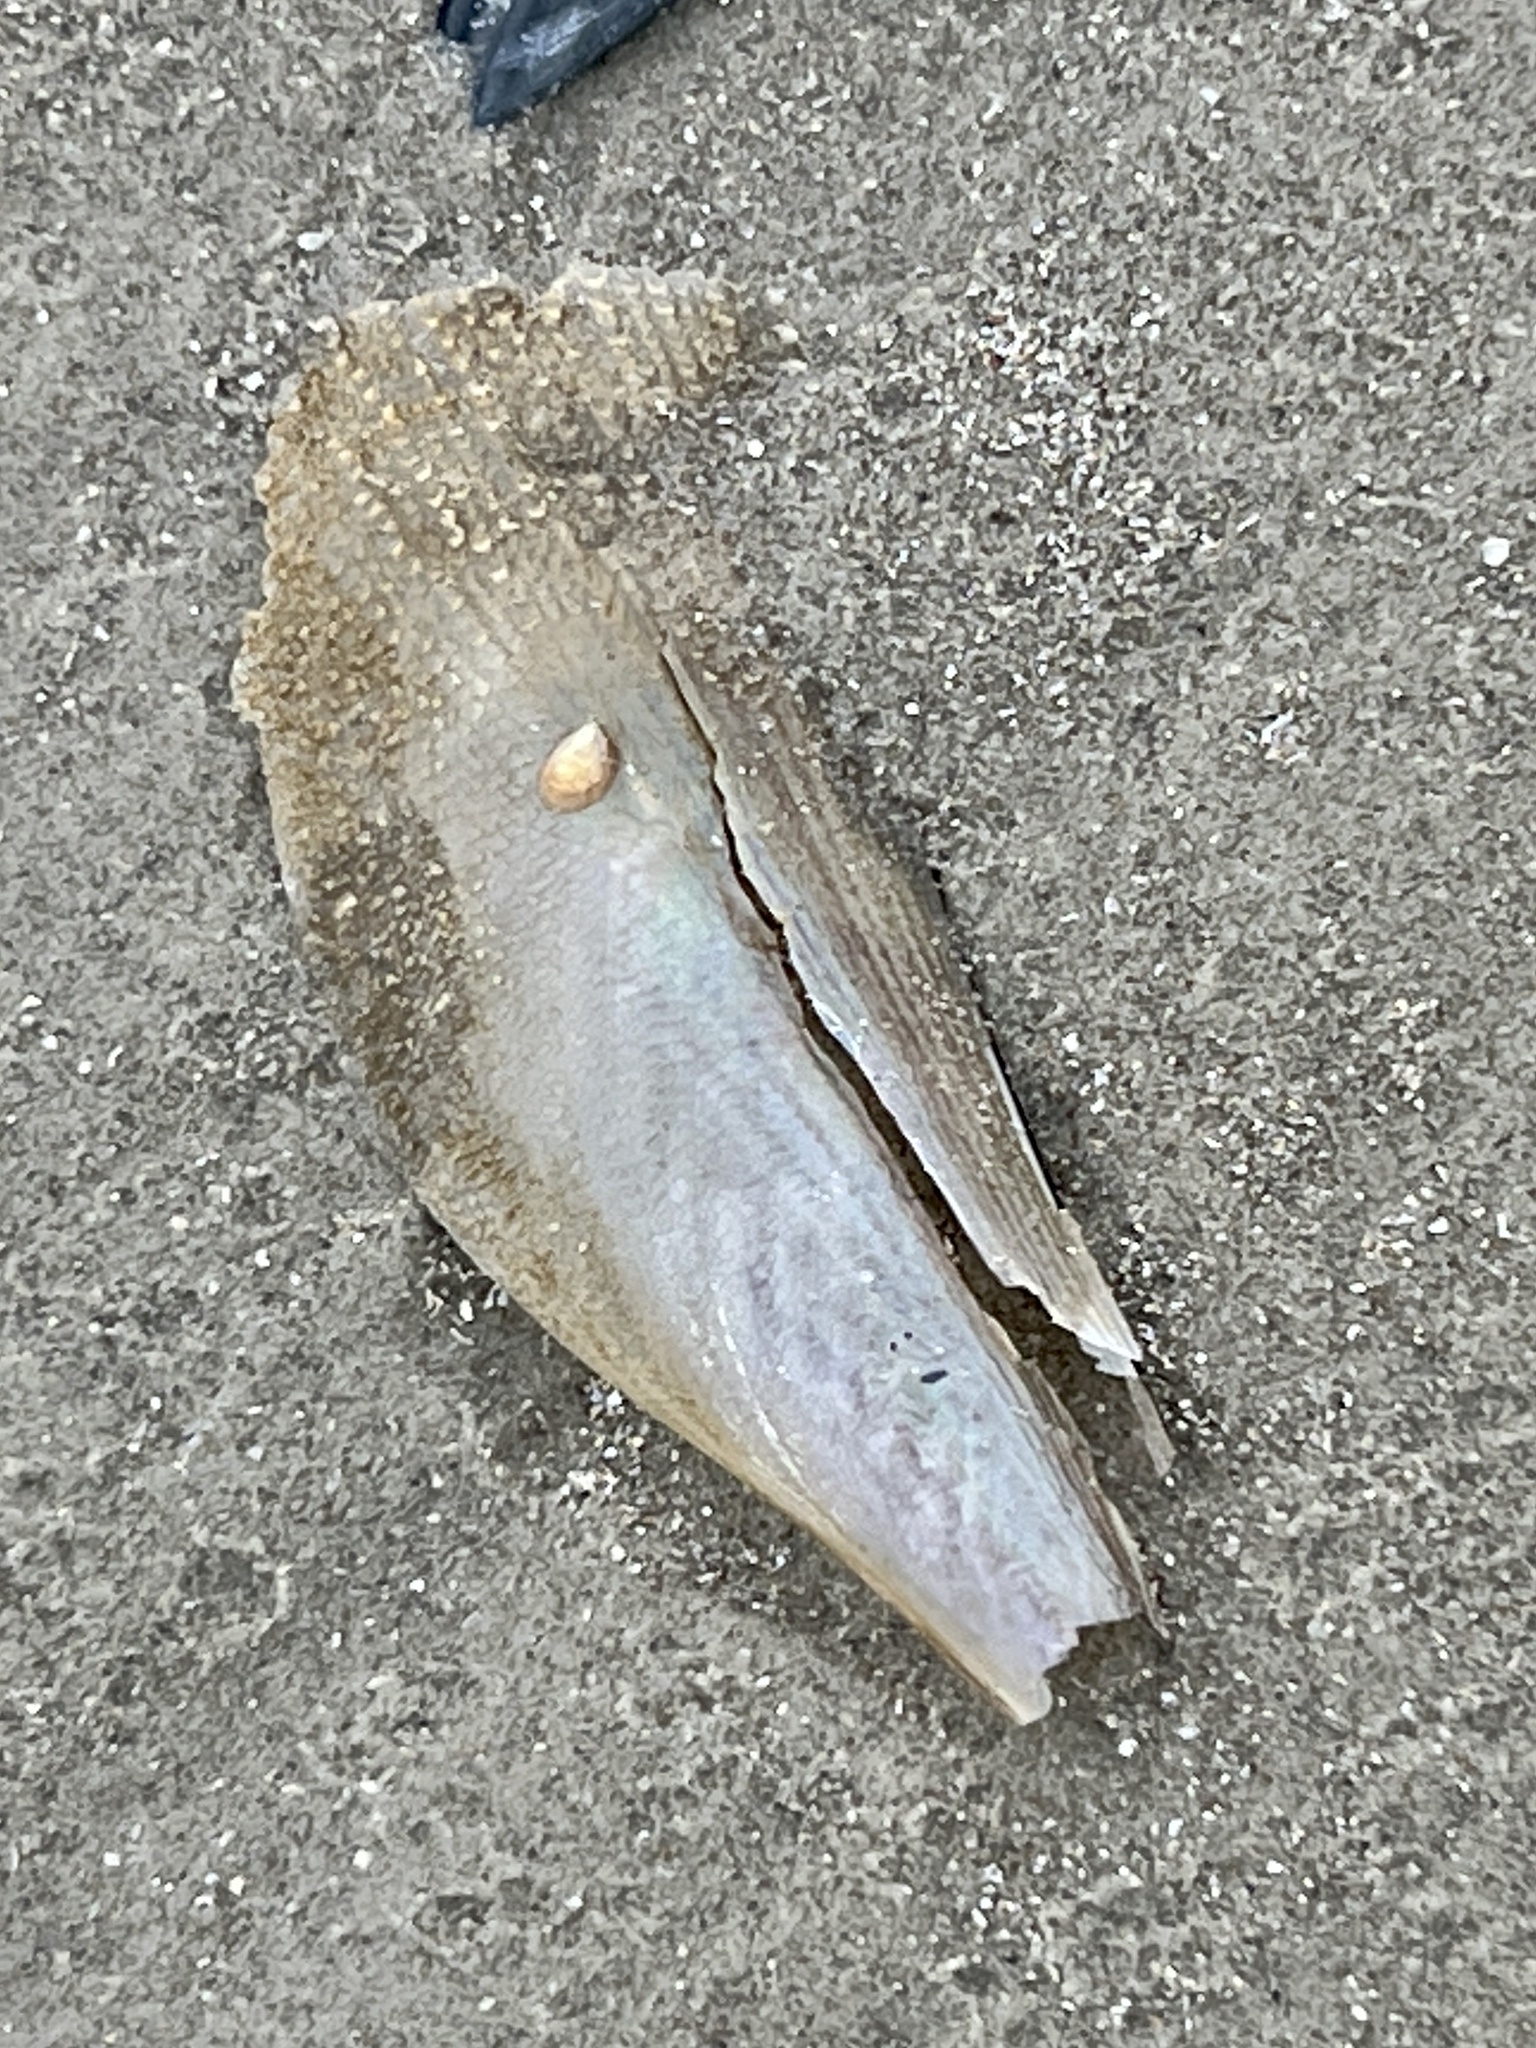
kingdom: Animalia
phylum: Mollusca
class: Bivalvia
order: Ostreida
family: Pinnidae
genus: Atrina
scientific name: Atrina serrata
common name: Saw-toothed penshell
